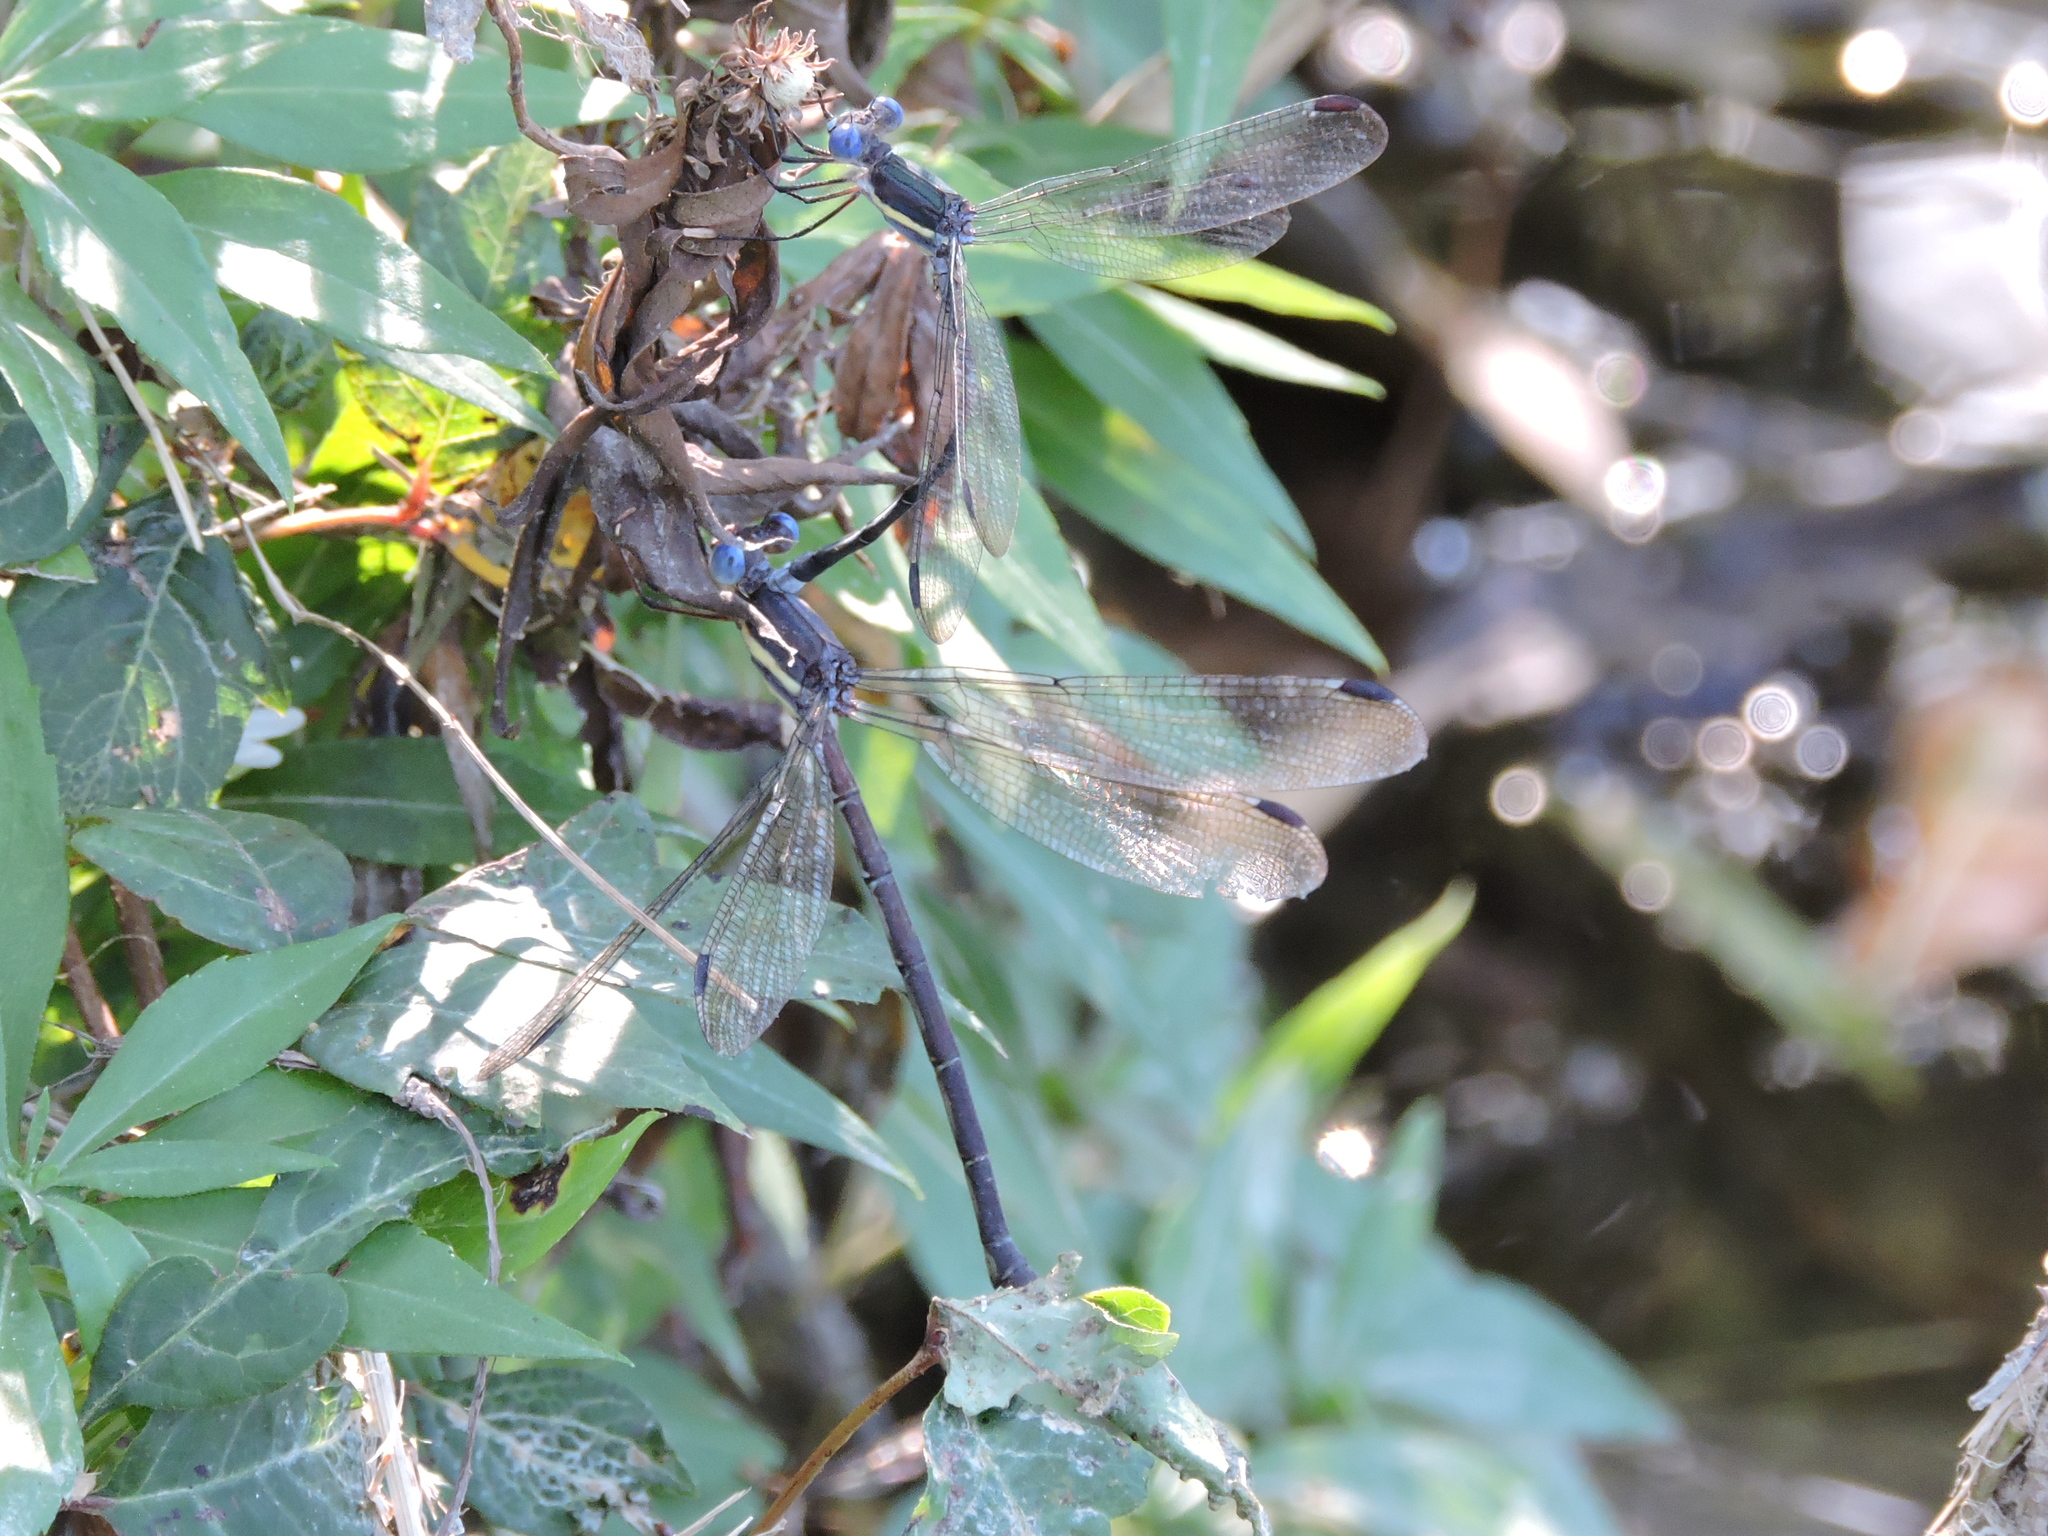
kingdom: Animalia
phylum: Arthropoda
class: Insecta
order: Odonata
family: Lestidae
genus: Archilestes
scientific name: Archilestes grandis
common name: Great spreadwing
